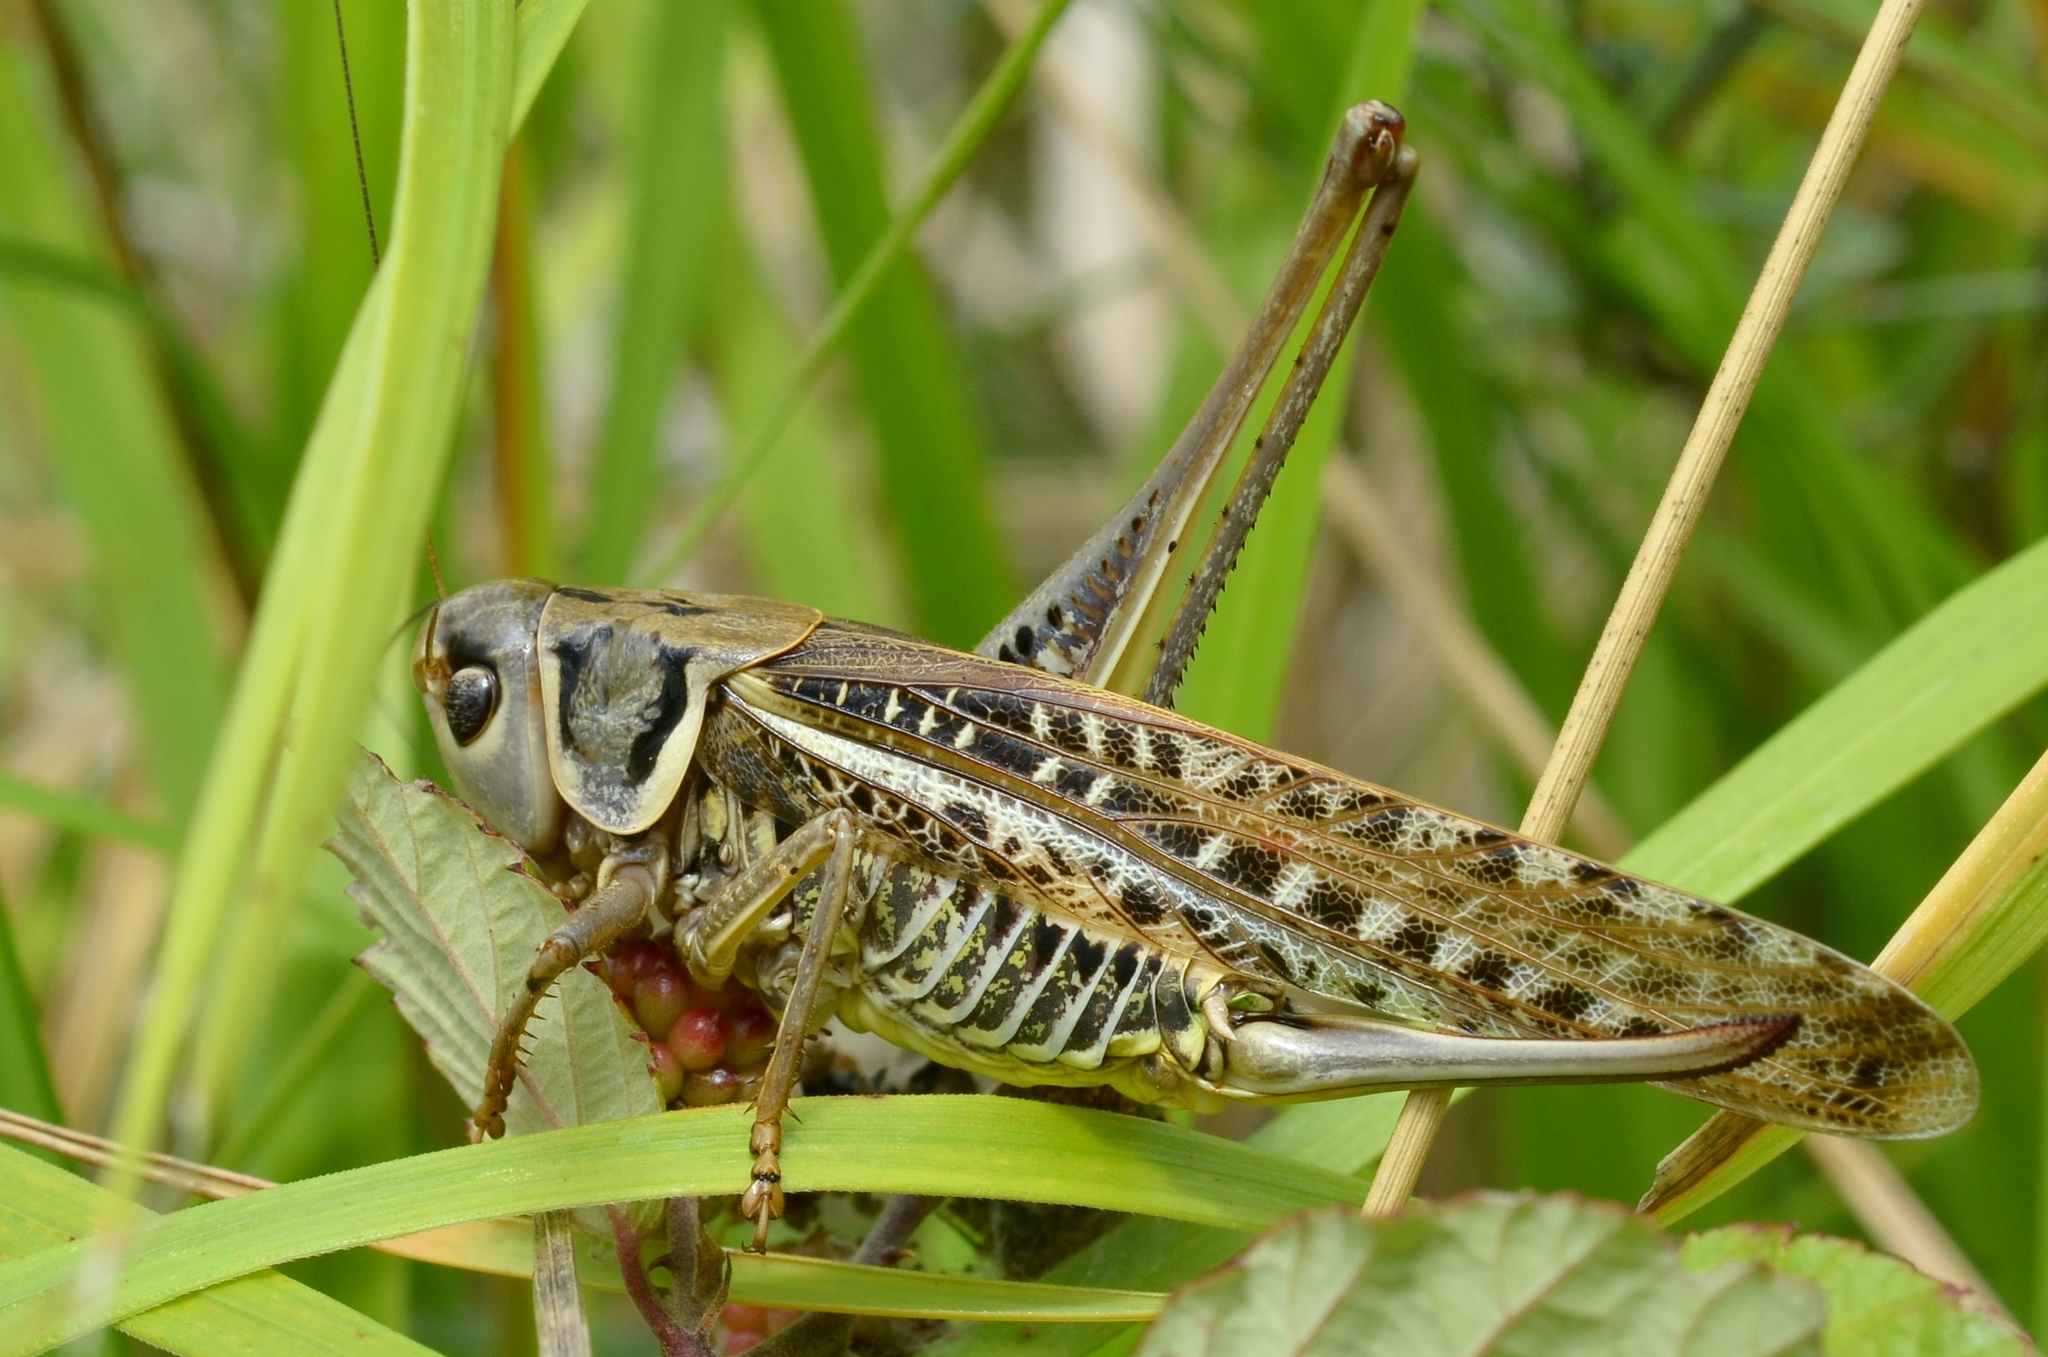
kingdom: Animalia
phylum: Arthropoda
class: Insecta
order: Orthoptera
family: Tettigoniidae
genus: Decticus
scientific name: Decticus albifrons
